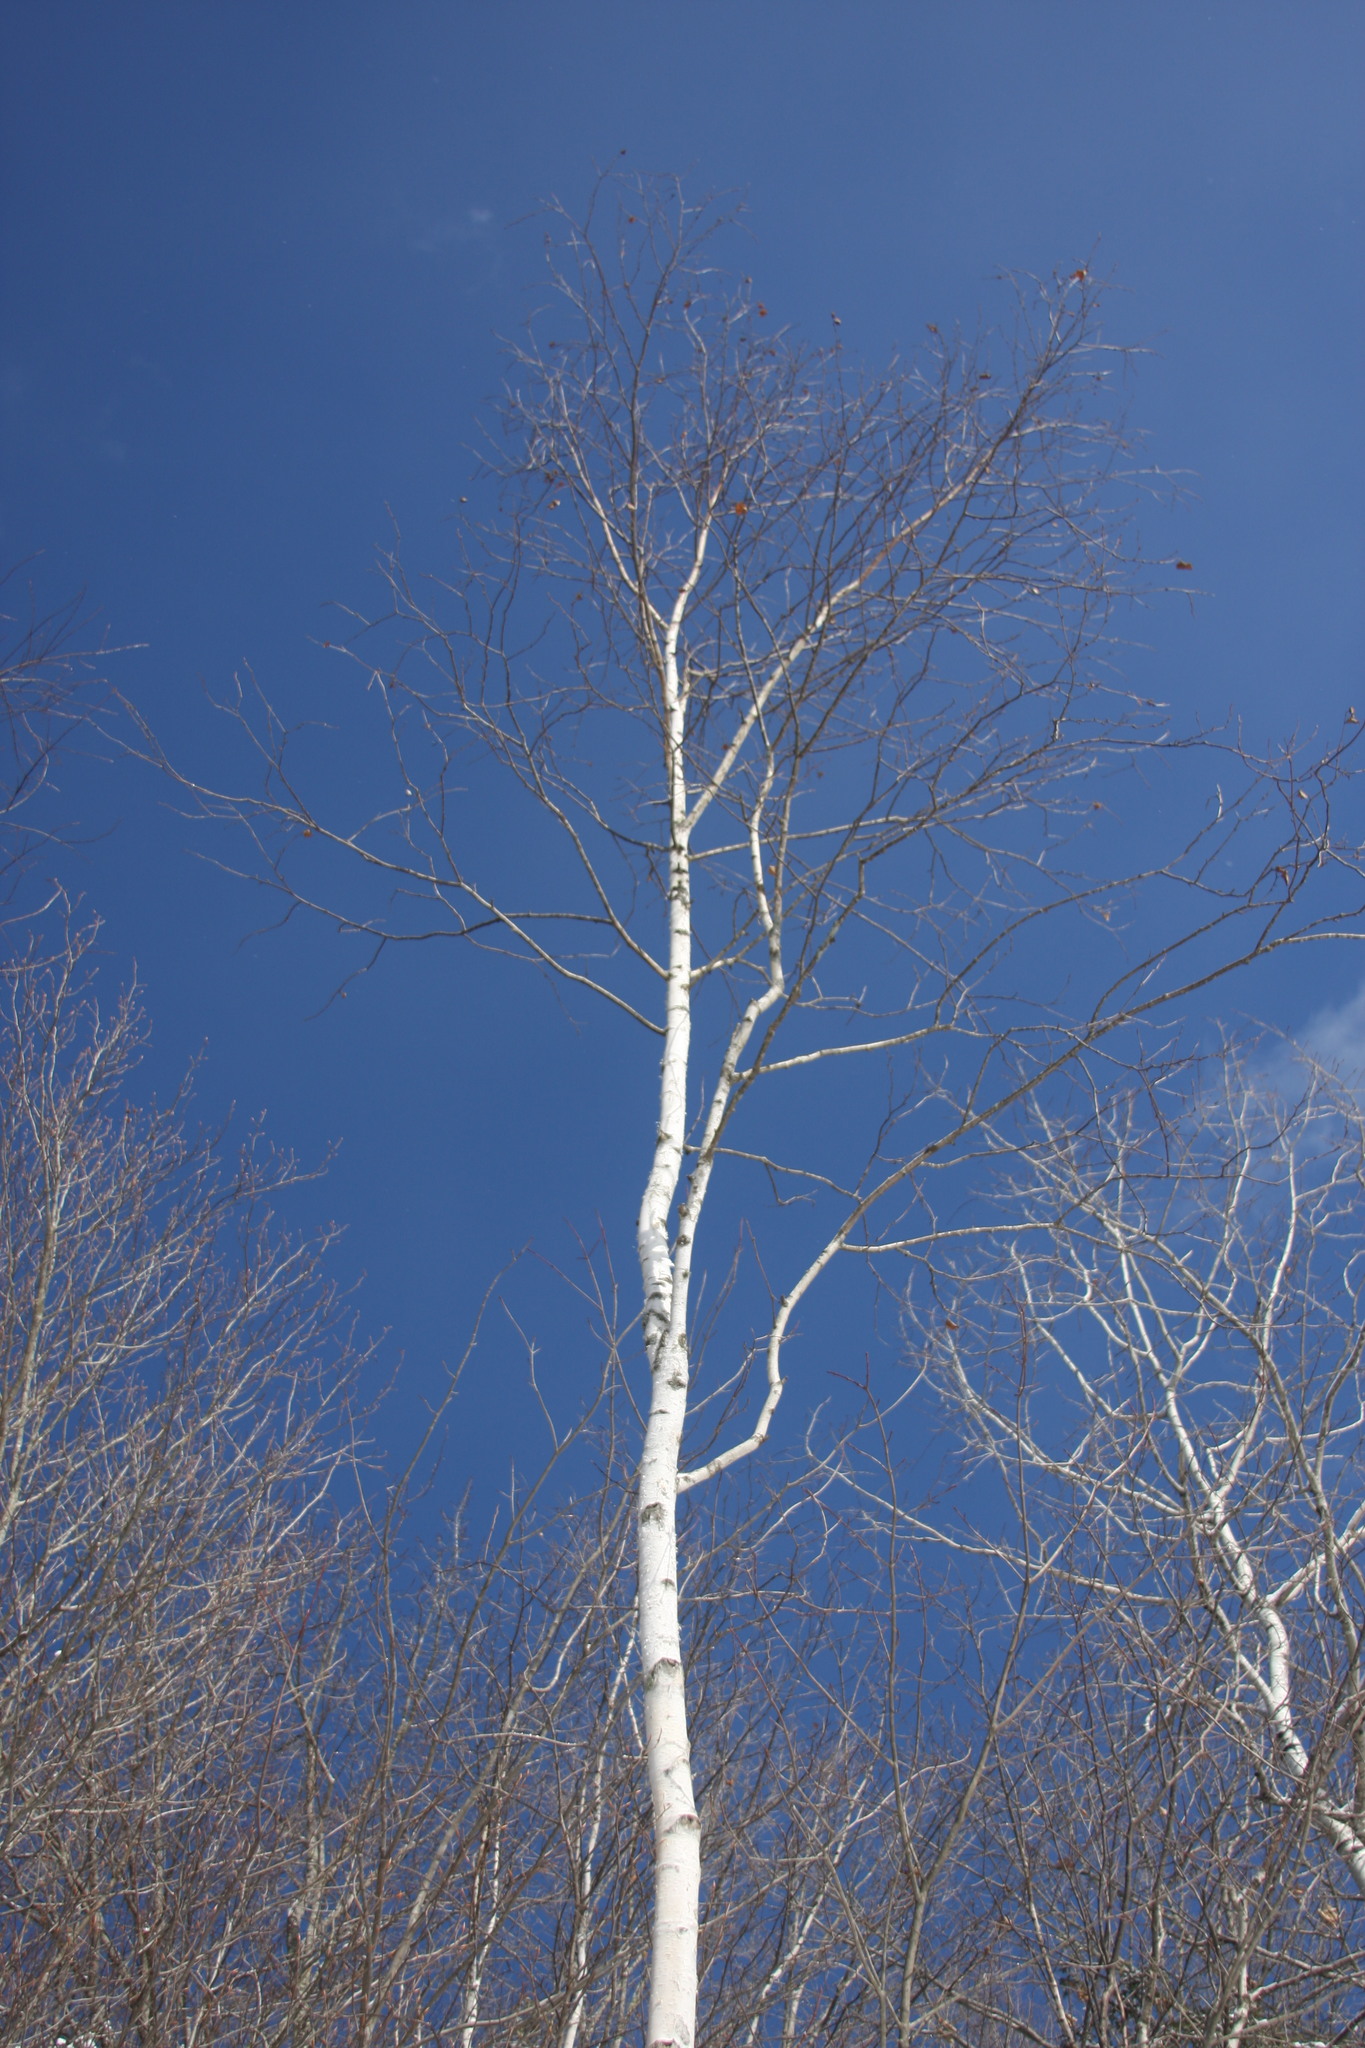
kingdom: Plantae
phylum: Tracheophyta
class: Magnoliopsida
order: Fagales
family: Betulaceae
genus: Betula
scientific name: Betula papyrifera
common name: Paper birch
